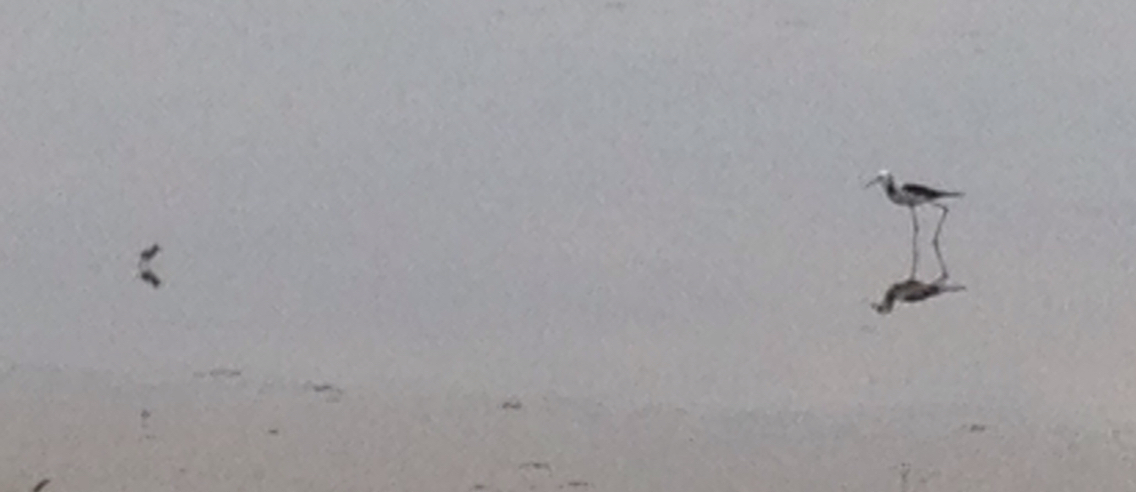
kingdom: Animalia
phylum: Chordata
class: Aves
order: Charadriiformes
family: Recurvirostridae
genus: Himantopus
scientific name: Himantopus leucocephalus
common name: White-headed stilt
